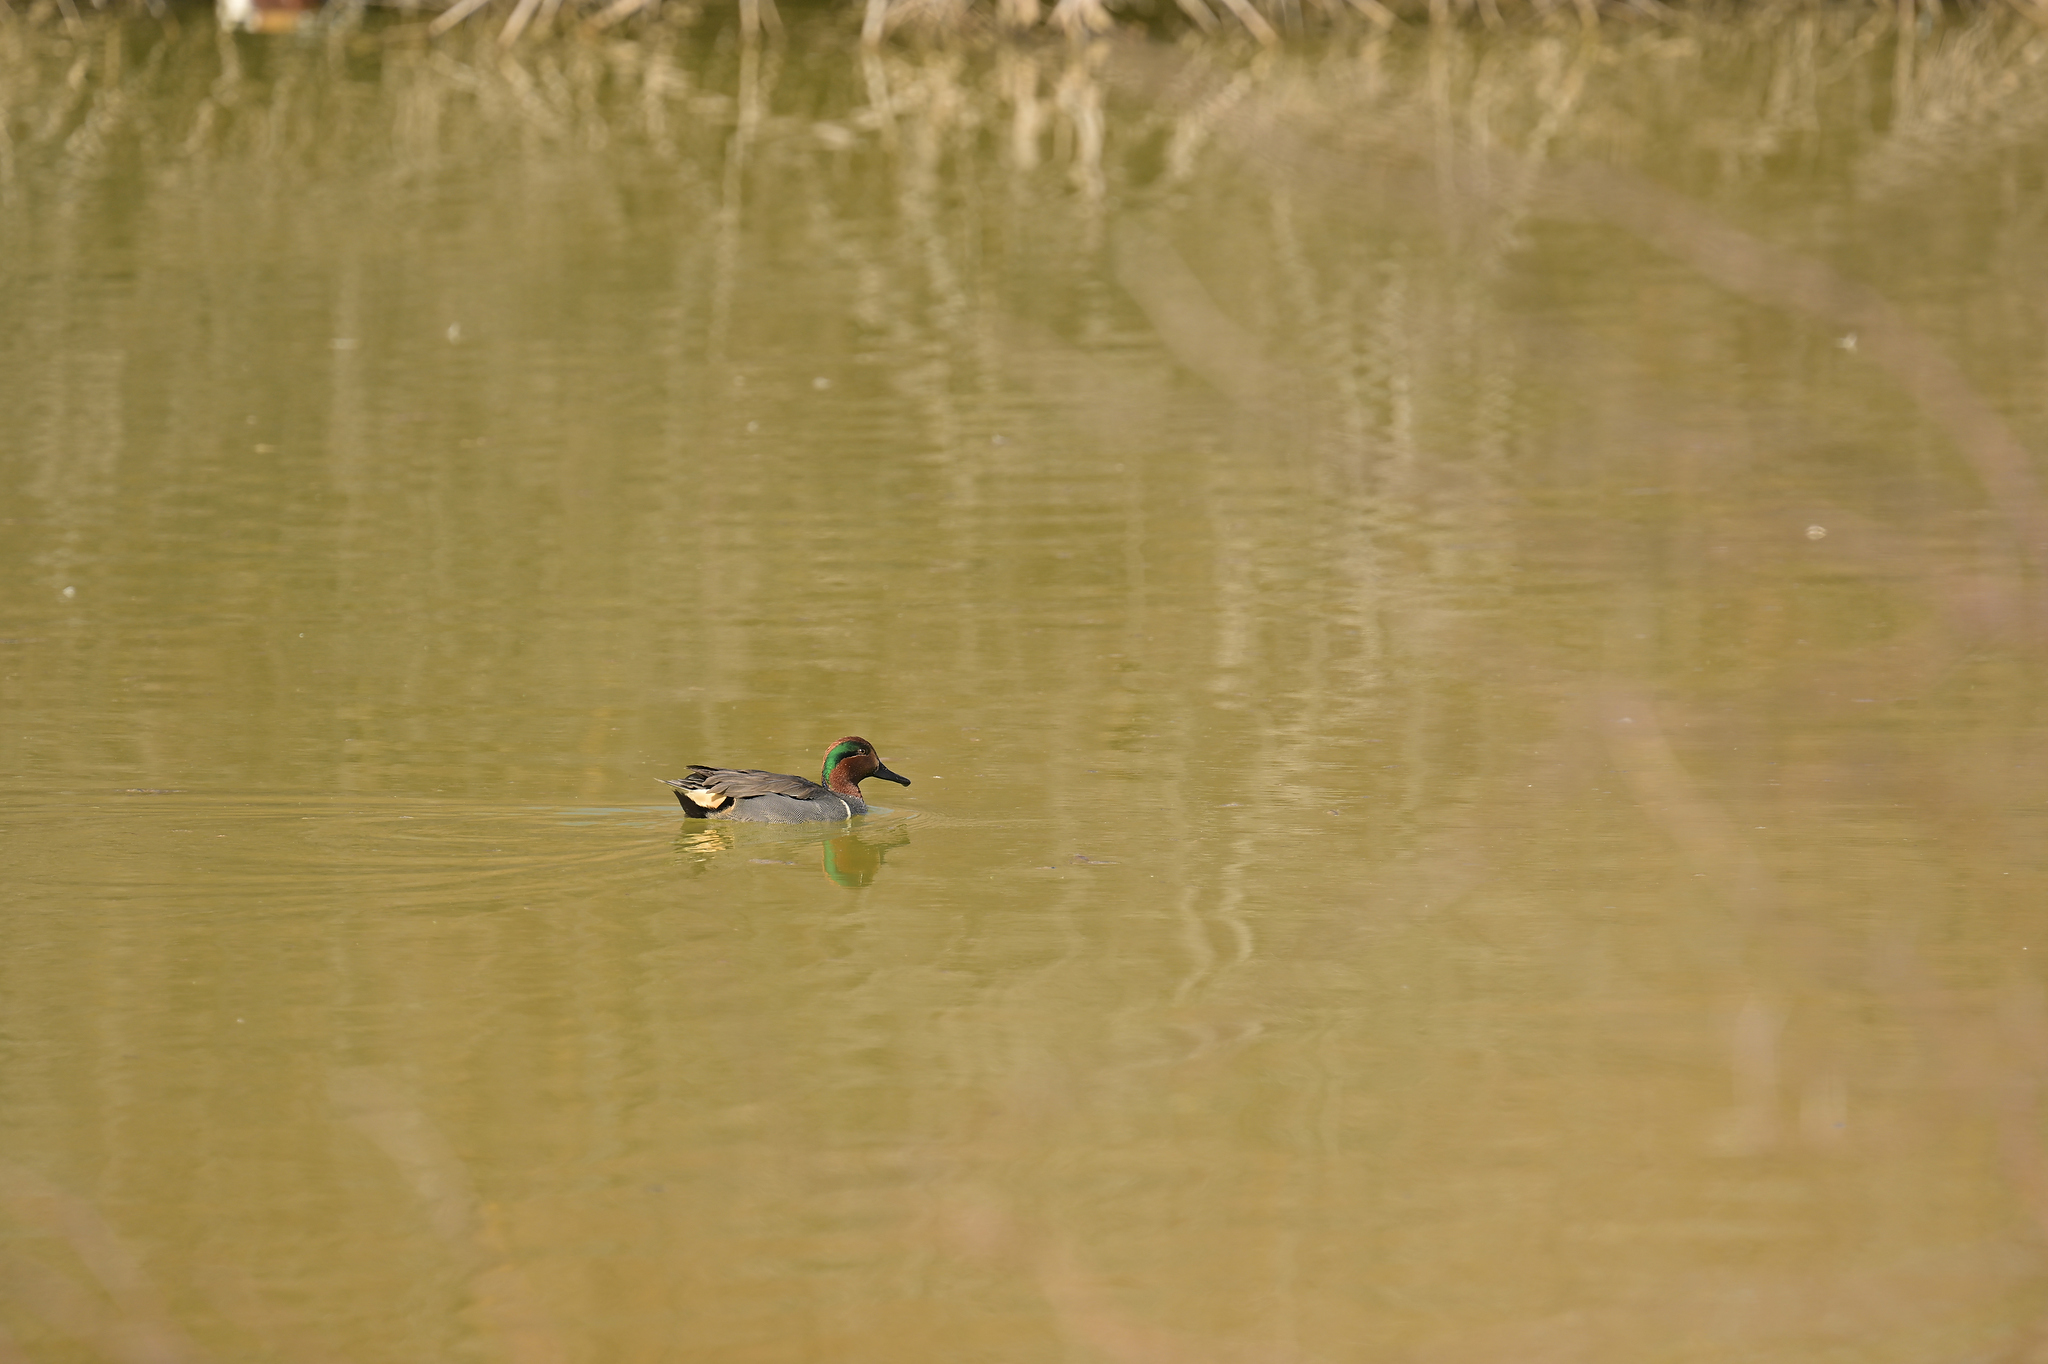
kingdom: Animalia
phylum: Chordata
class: Aves
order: Anseriformes
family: Anatidae
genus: Anas
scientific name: Anas crecca
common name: Eurasian teal
